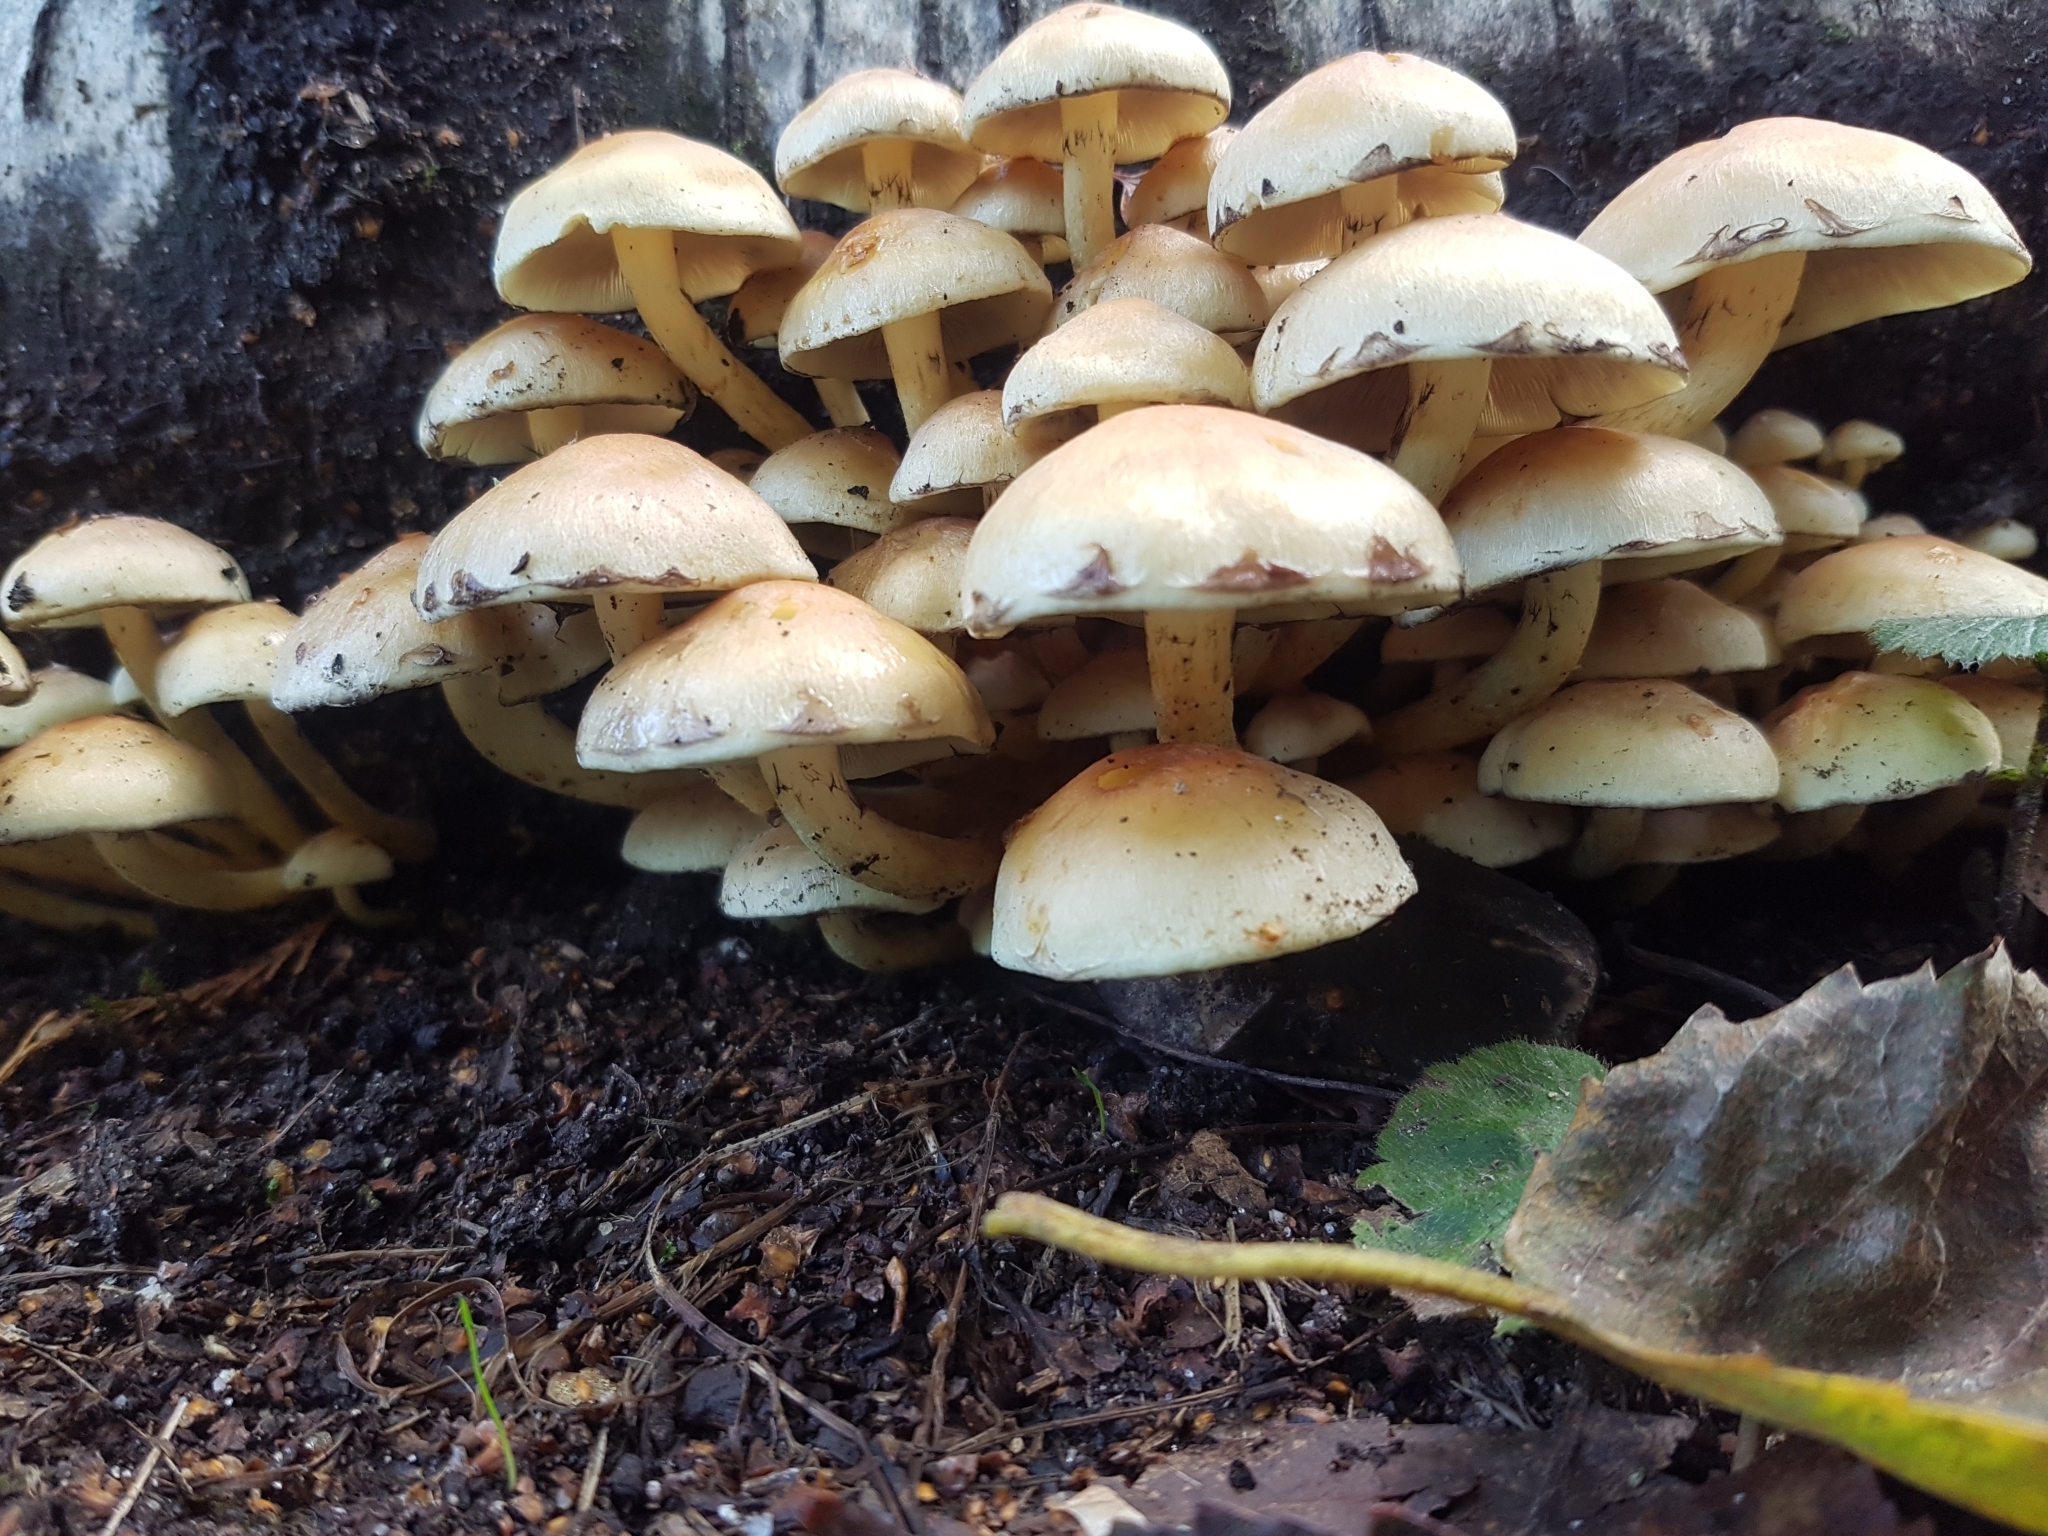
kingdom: Fungi
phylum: Basidiomycota
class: Agaricomycetes
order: Agaricales
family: Strophariaceae
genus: Hypholoma
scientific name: Hypholoma fasciculare
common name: Sulphur tuft
